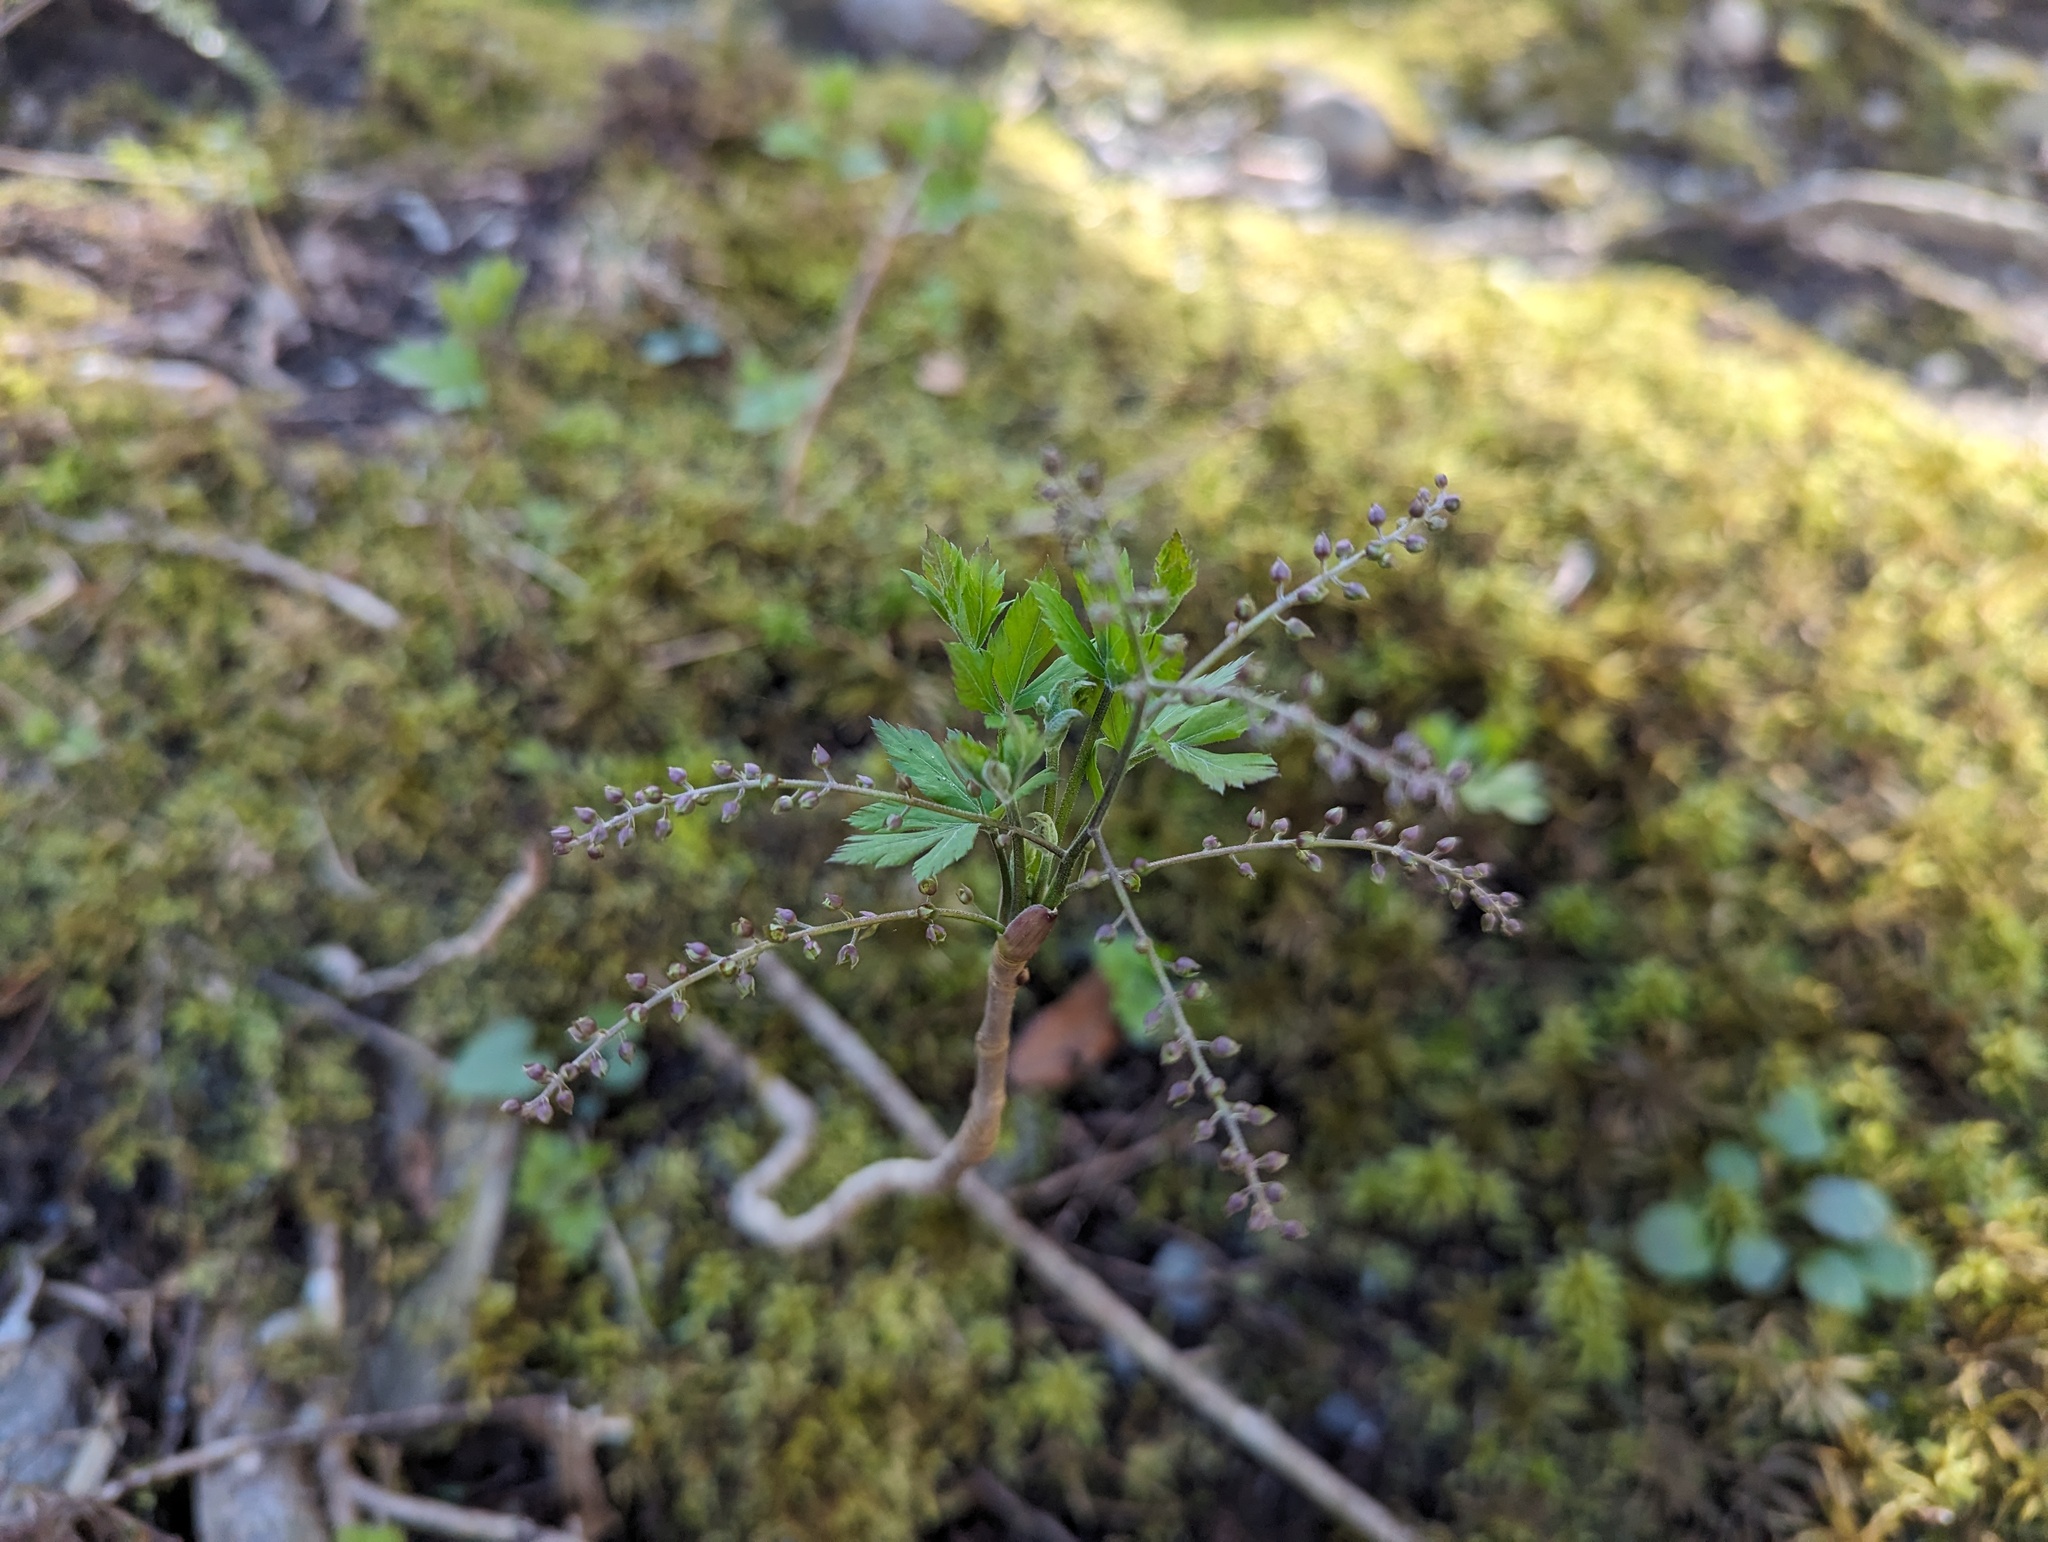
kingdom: Plantae
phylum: Tracheophyta
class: Magnoliopsida
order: Ranunculales
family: Ranunculaceae
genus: Xanthorhiza
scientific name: Xanthorhiza simplicissima
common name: Yellowroot
